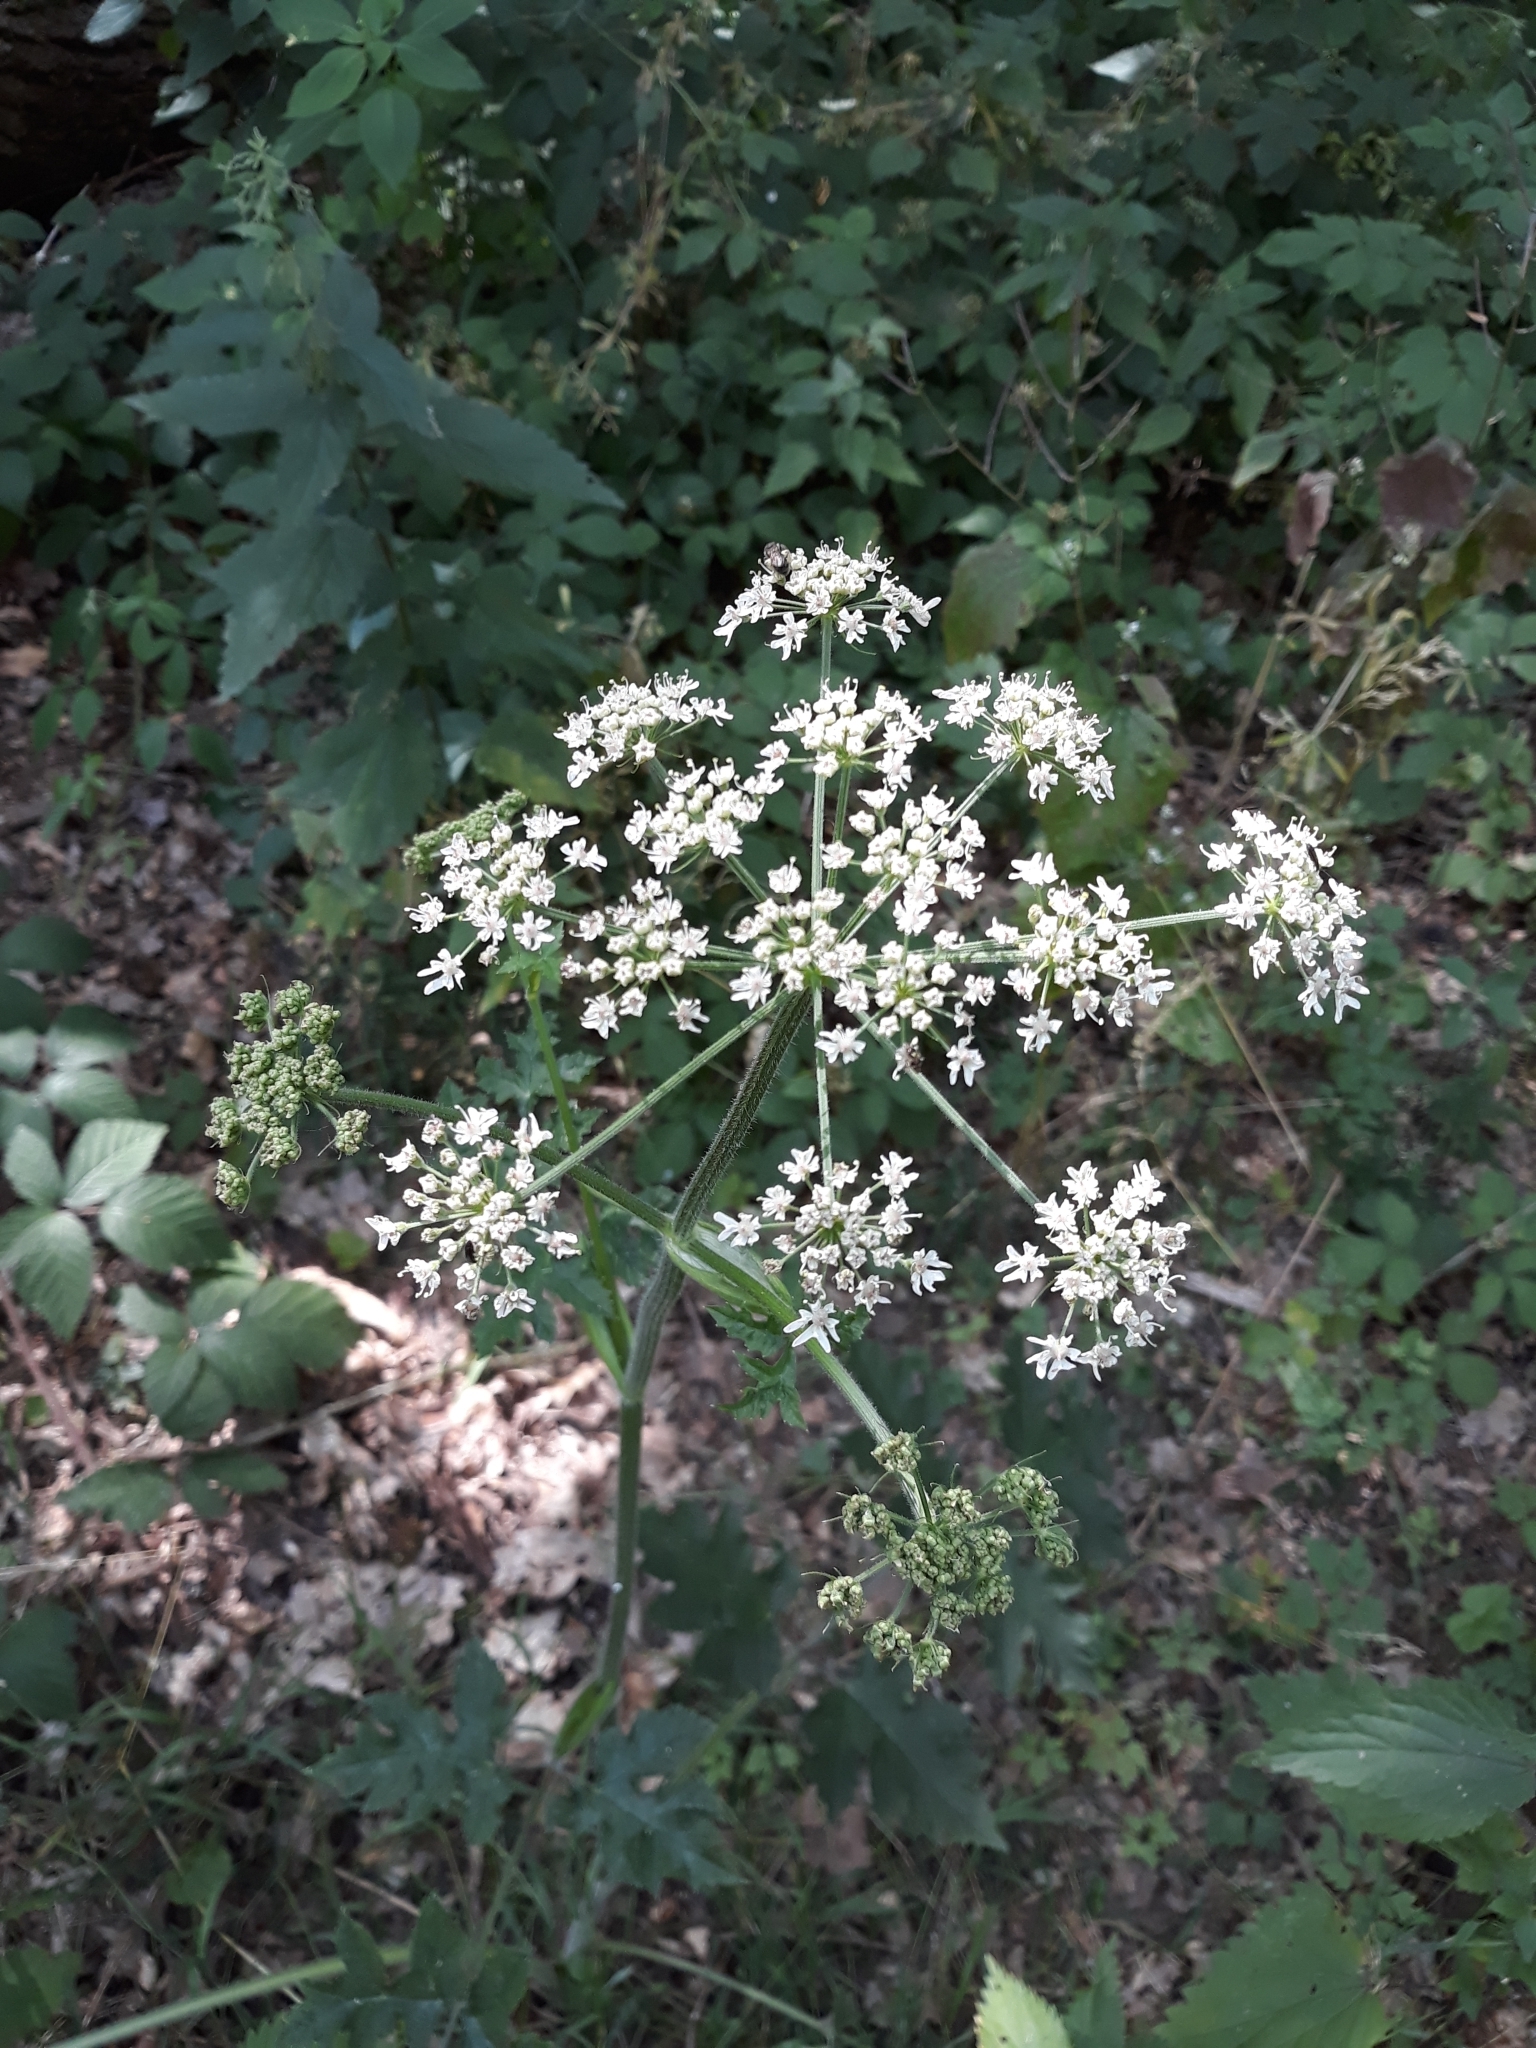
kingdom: Plantae
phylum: Tracheophyta
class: Magnoliopsida
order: Apiales
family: Apiaceae
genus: Heracleum
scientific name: Heracleum sphondylium
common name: Hogweed
